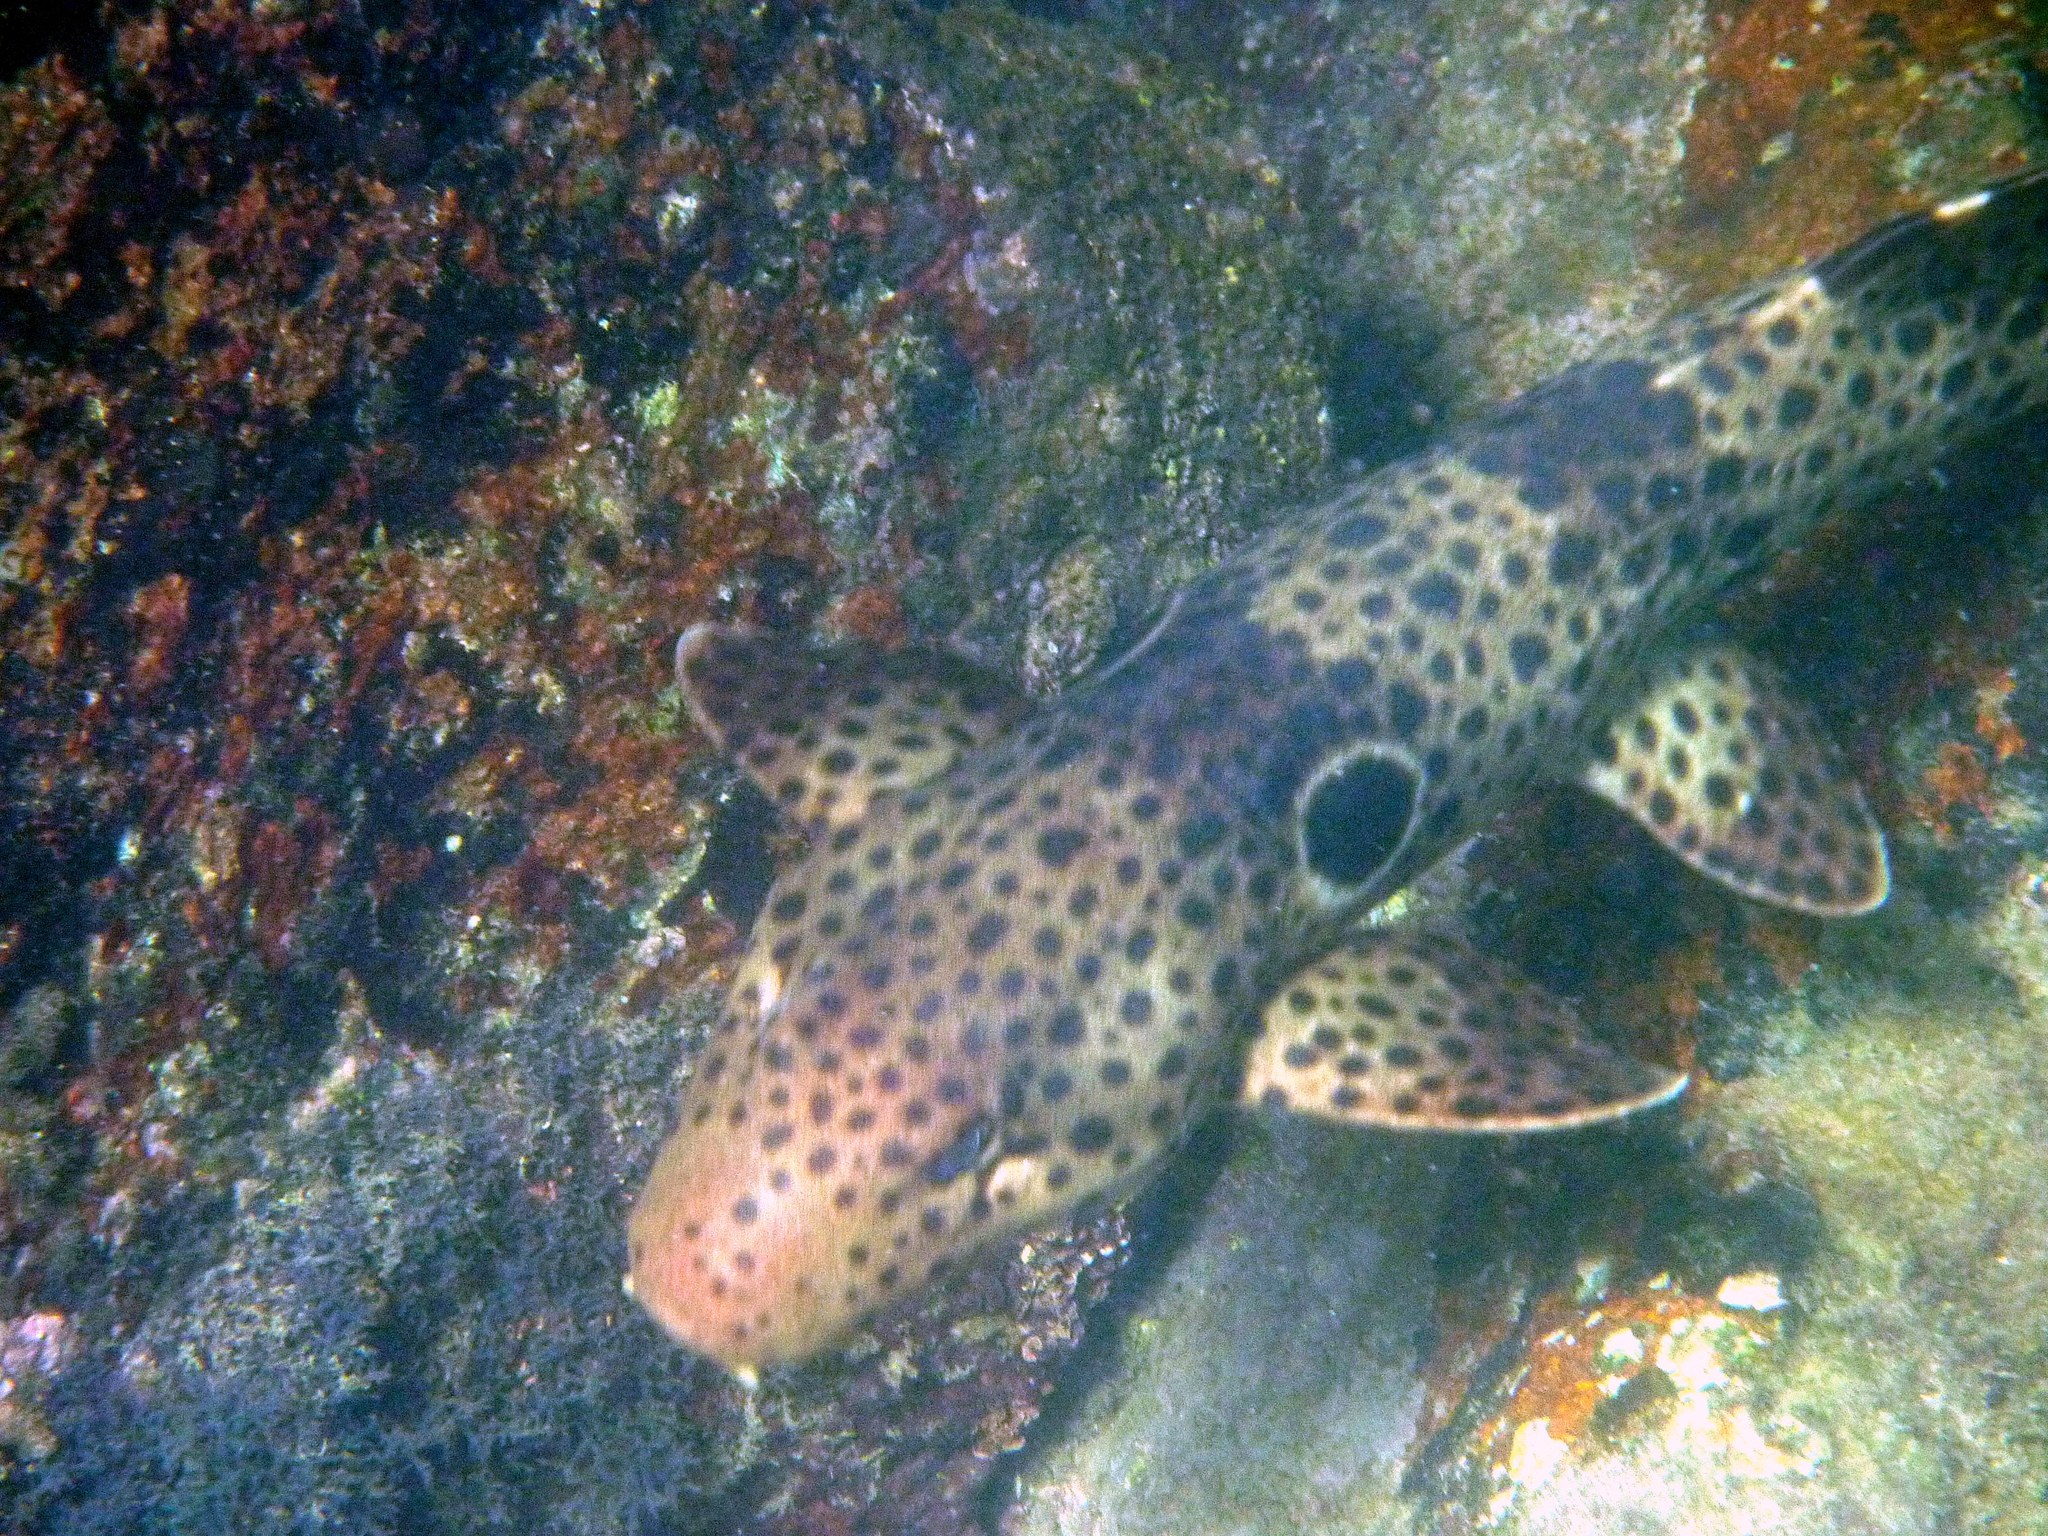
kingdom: Animalia
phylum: Chordata
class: Elasmobranchii
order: Orectolobiformes
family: Hemiscylliidae
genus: Hemiscyllium
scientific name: Hemiscyllium ocellatum
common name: Epaulette shark
